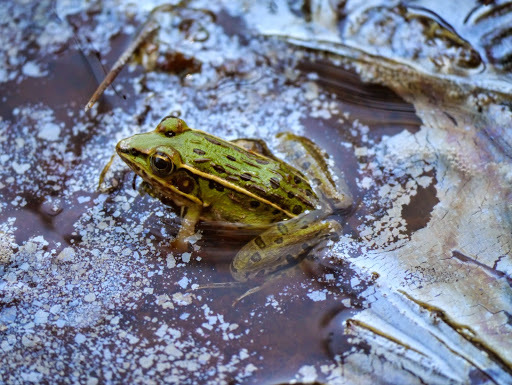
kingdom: Animalia
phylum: Chordata
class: Amphibia
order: Anura
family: Ranidae
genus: Lithobates
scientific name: Lithobates sphenocephalus
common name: Southern leopard frog
